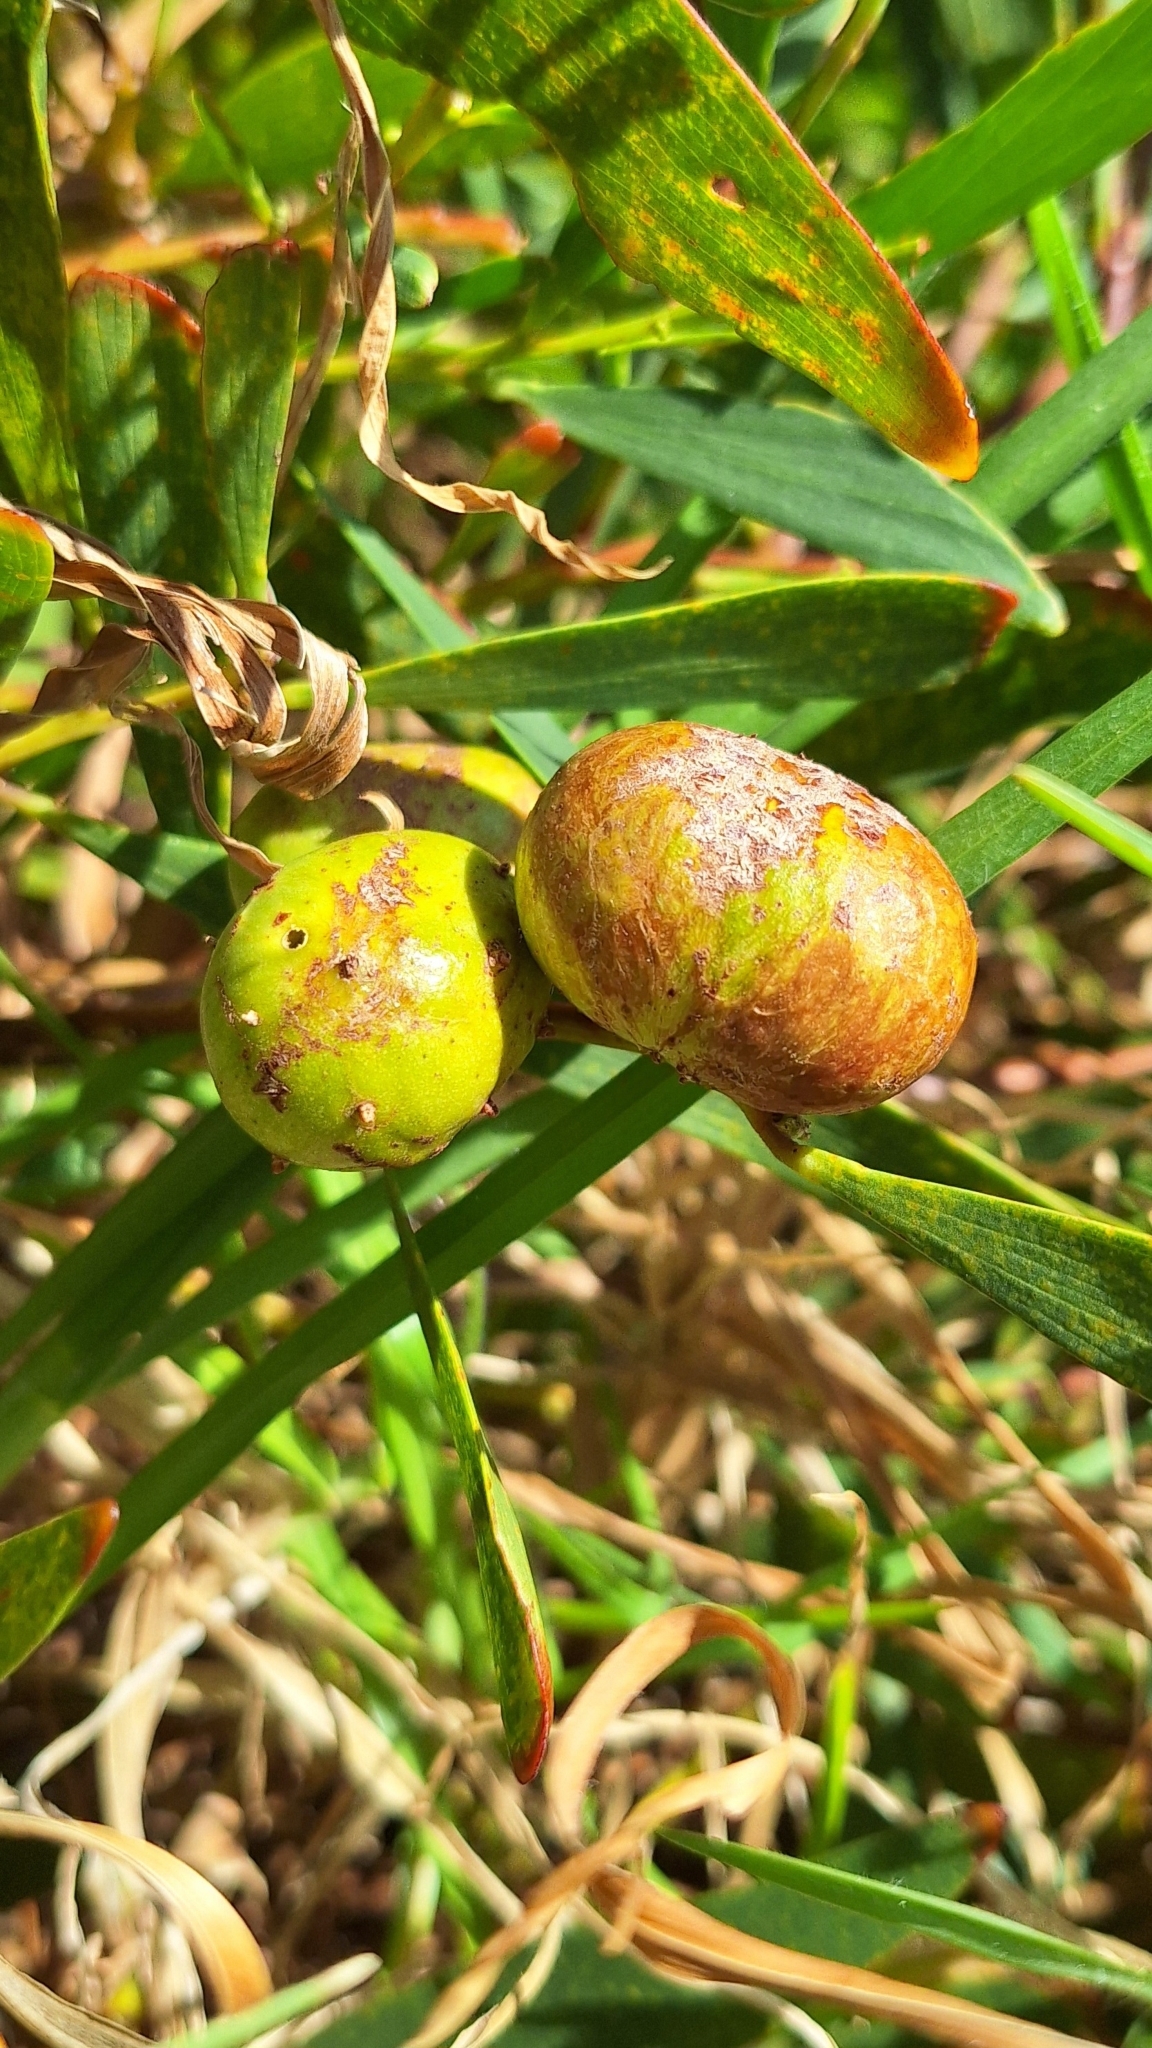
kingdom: Animalia
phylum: Arthropoda
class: Insecta
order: Hymenoptera
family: Pteromalidae
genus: Trichilogaster
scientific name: Trichilogaster acaciaelongifoliae
